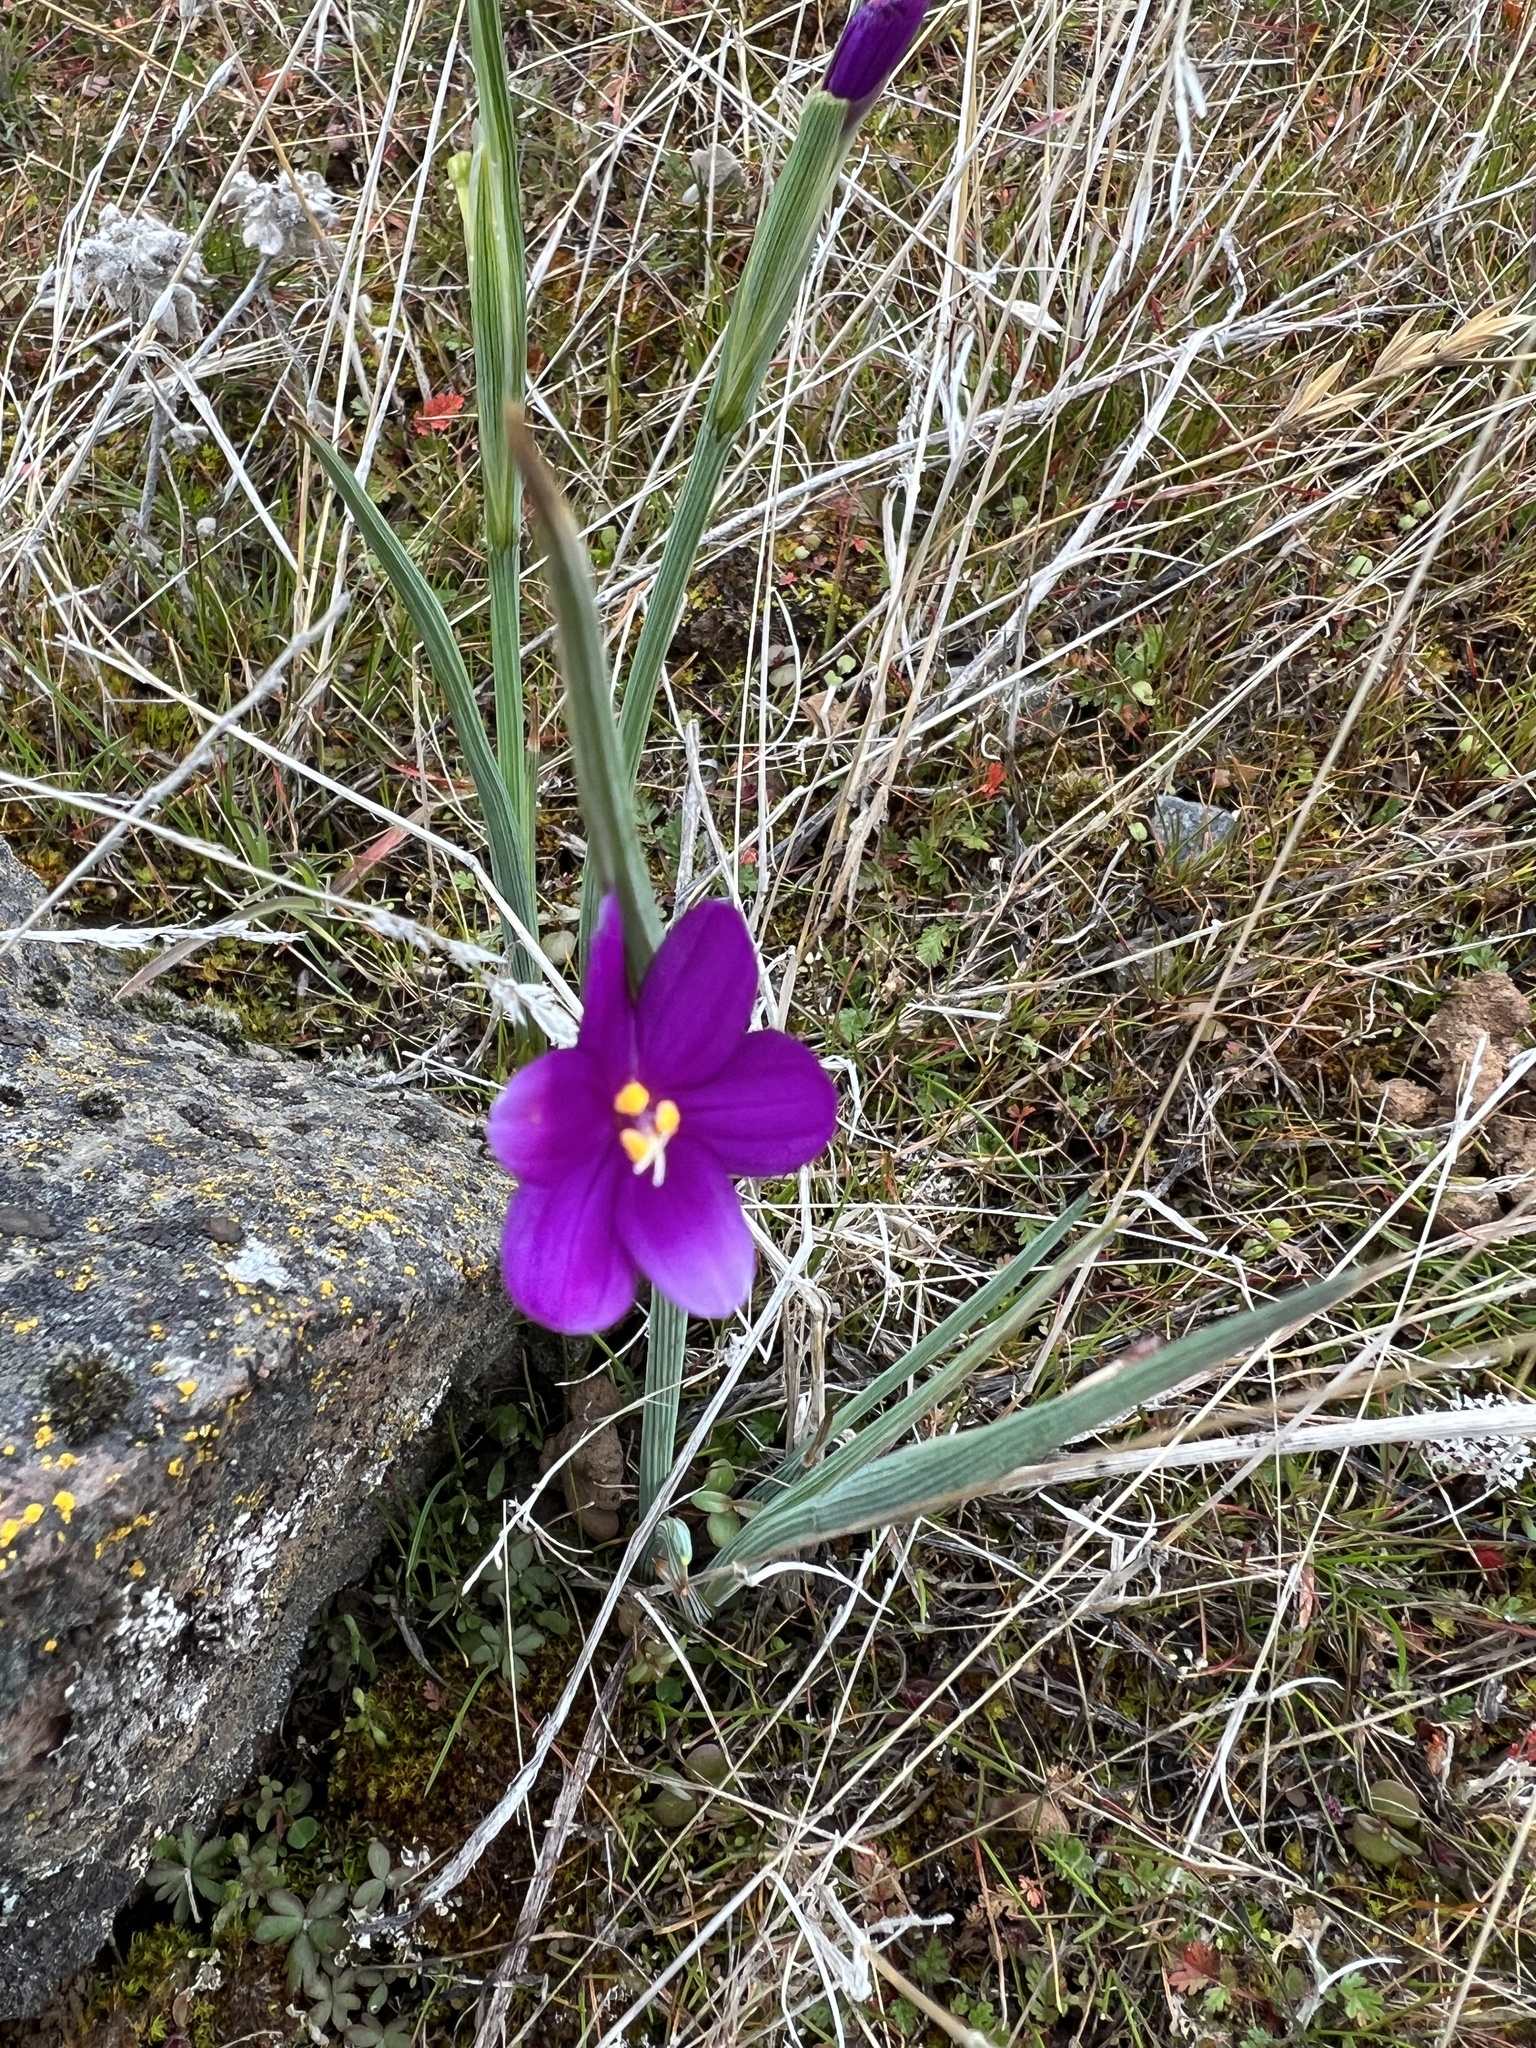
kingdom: Plantae
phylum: Tracheophyta
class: Liliopsida
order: Asparagales
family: Iridaceae
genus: Olsynium
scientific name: Olsynium douglasii
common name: Douglas' grasswidow
